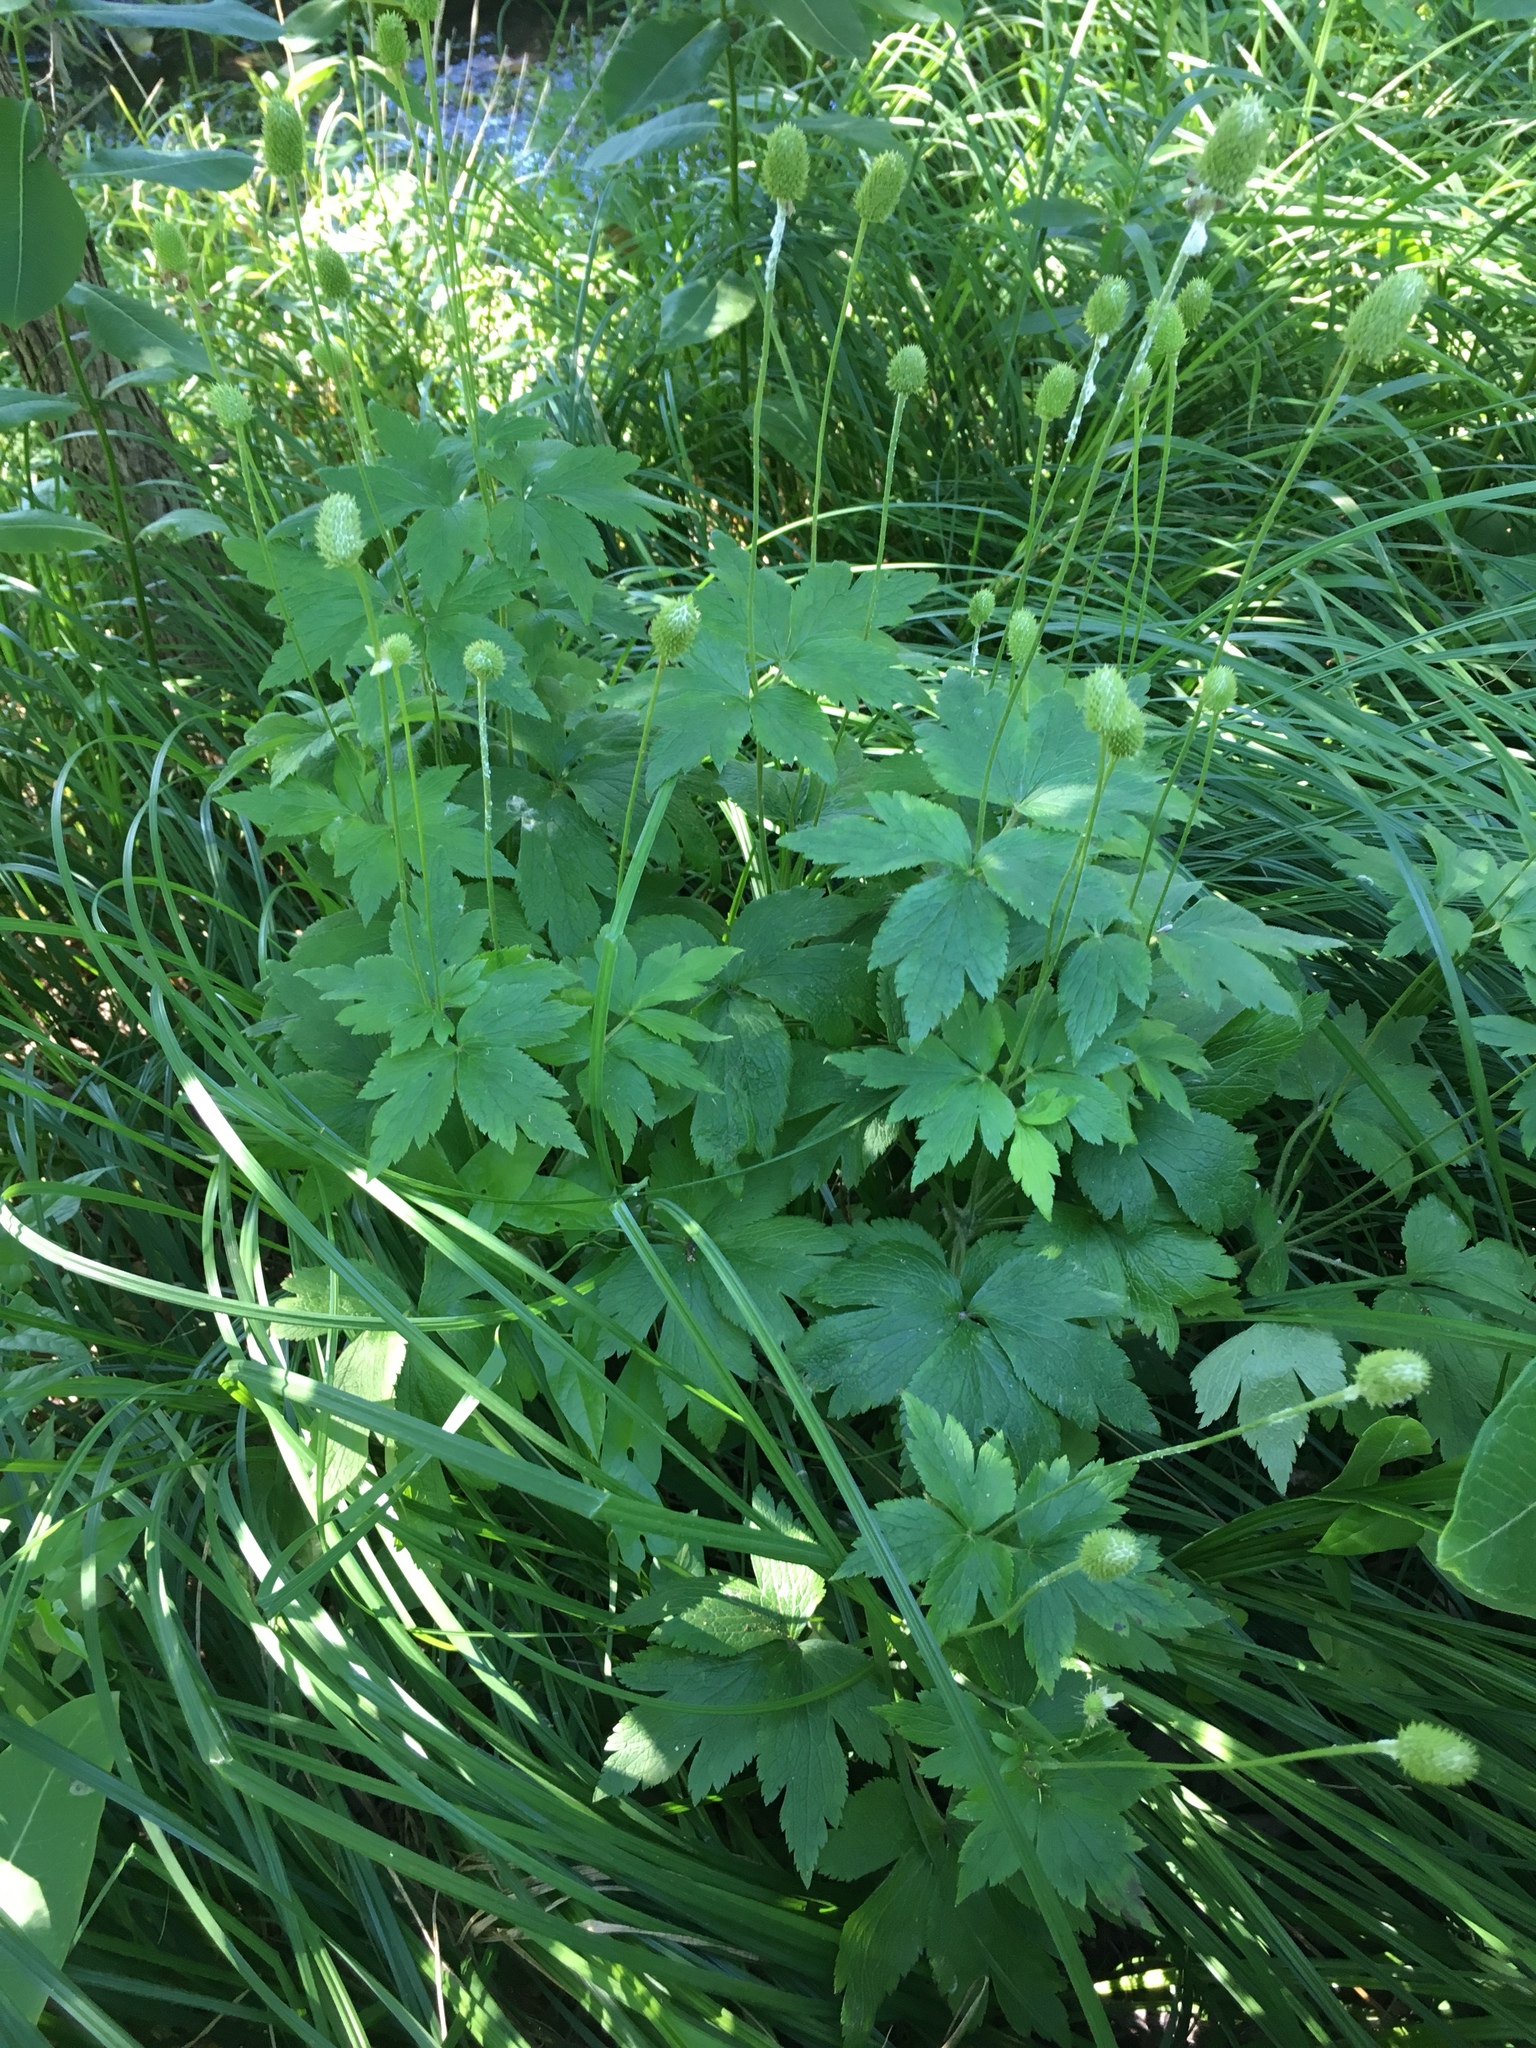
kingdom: Plantae
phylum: Tracheophyta
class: Magnoliopsida
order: Ranunculales
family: Ranunculaceae
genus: Anemone
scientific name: Anemone virginiana
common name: Tall anemone
